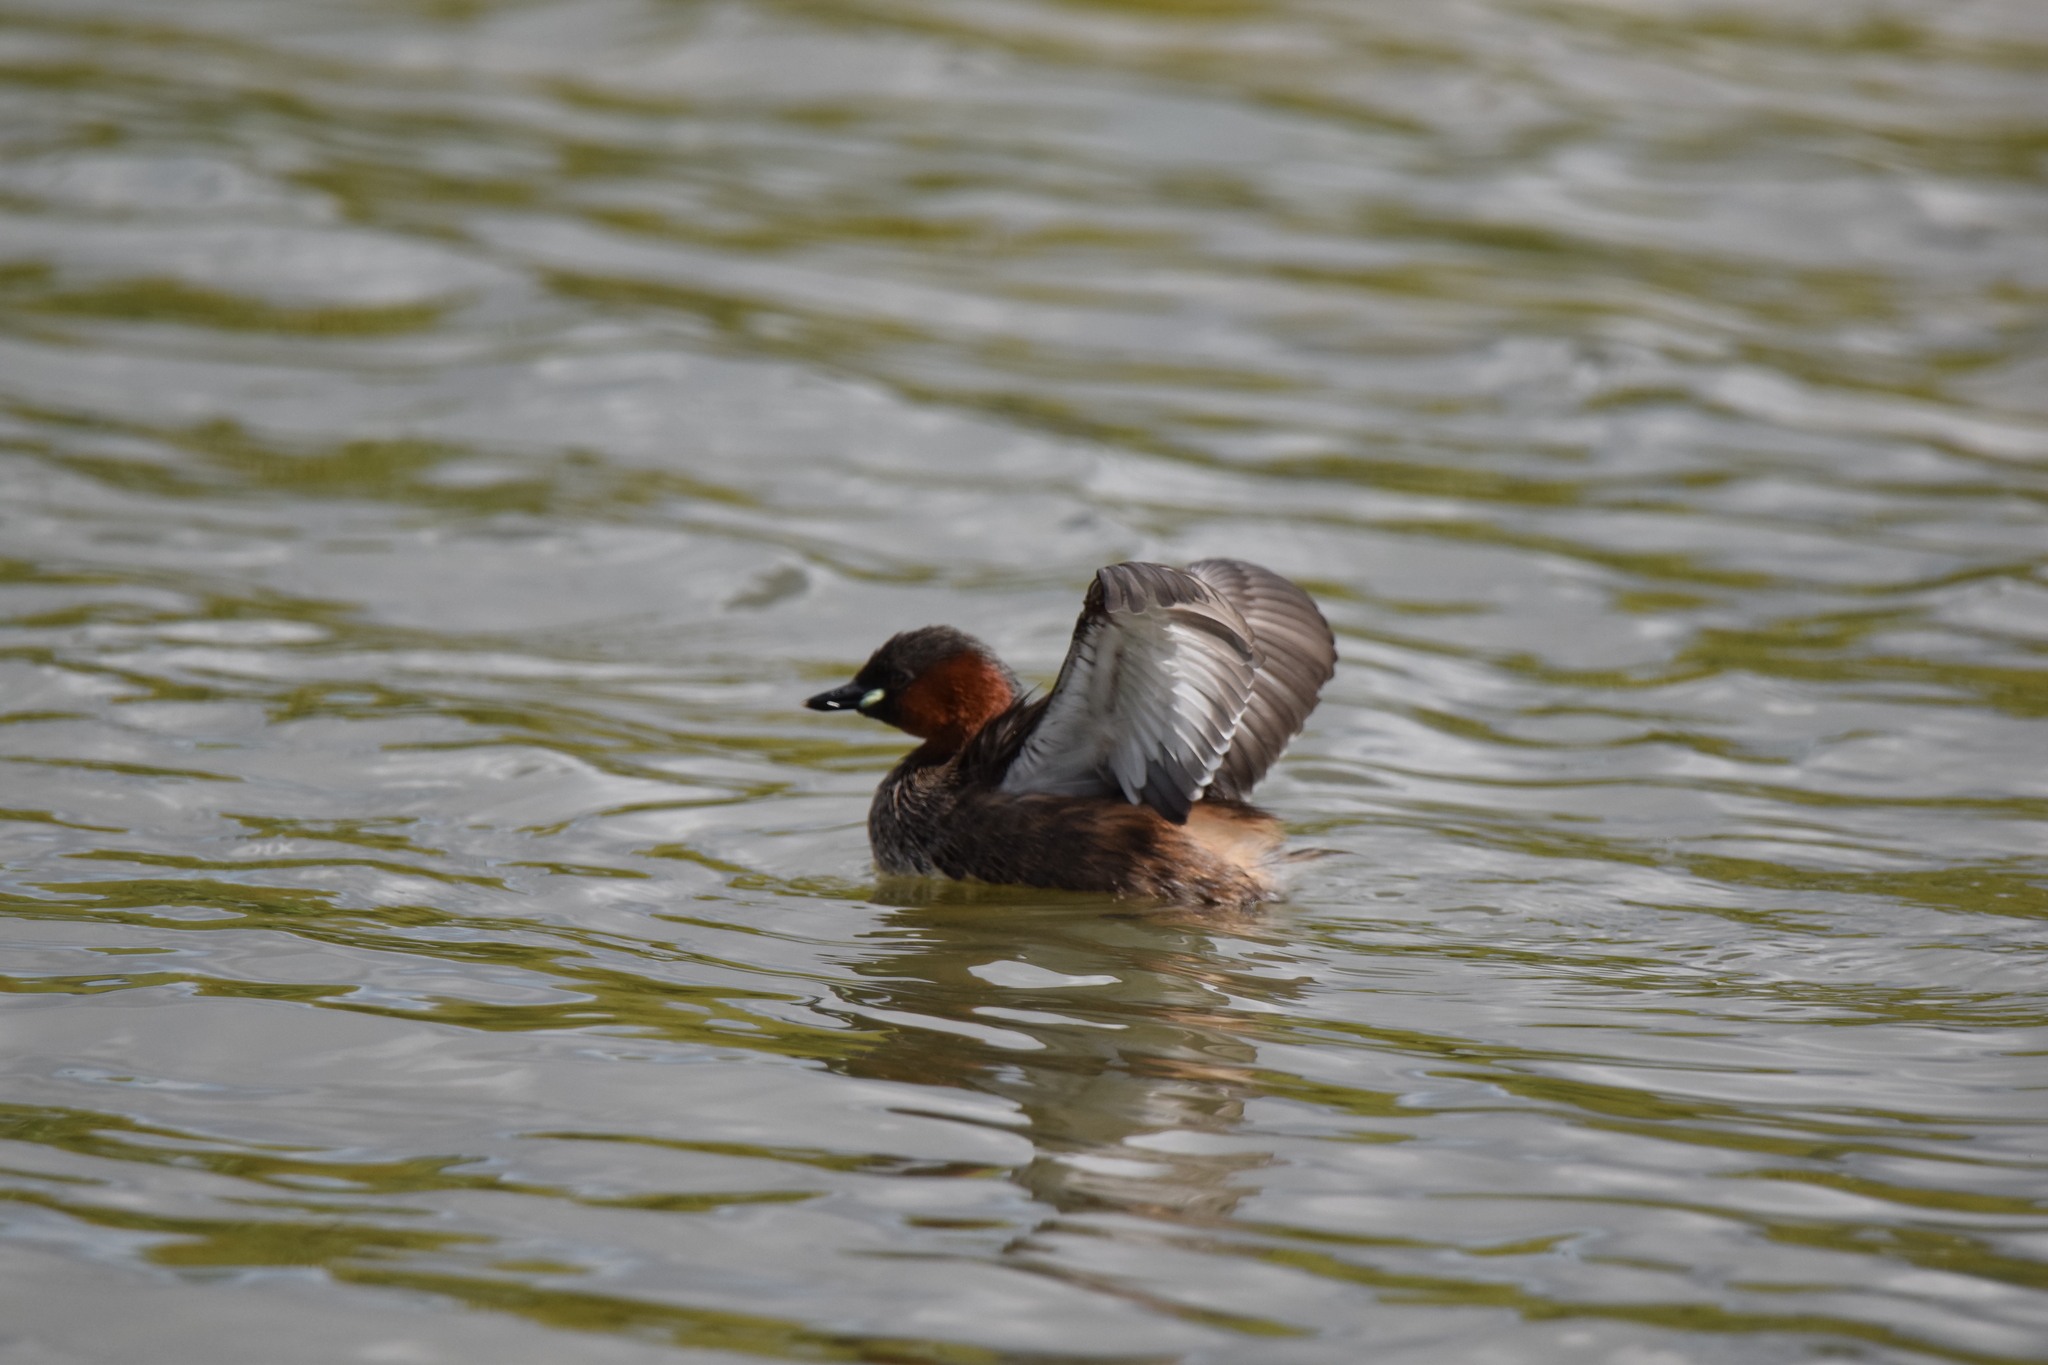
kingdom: Animalia
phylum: Chordata
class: Aves
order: Podicipediformes
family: Podicipedidae
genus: Tachybaptus
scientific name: Tachybaptus ruficollis
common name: Little grebe
